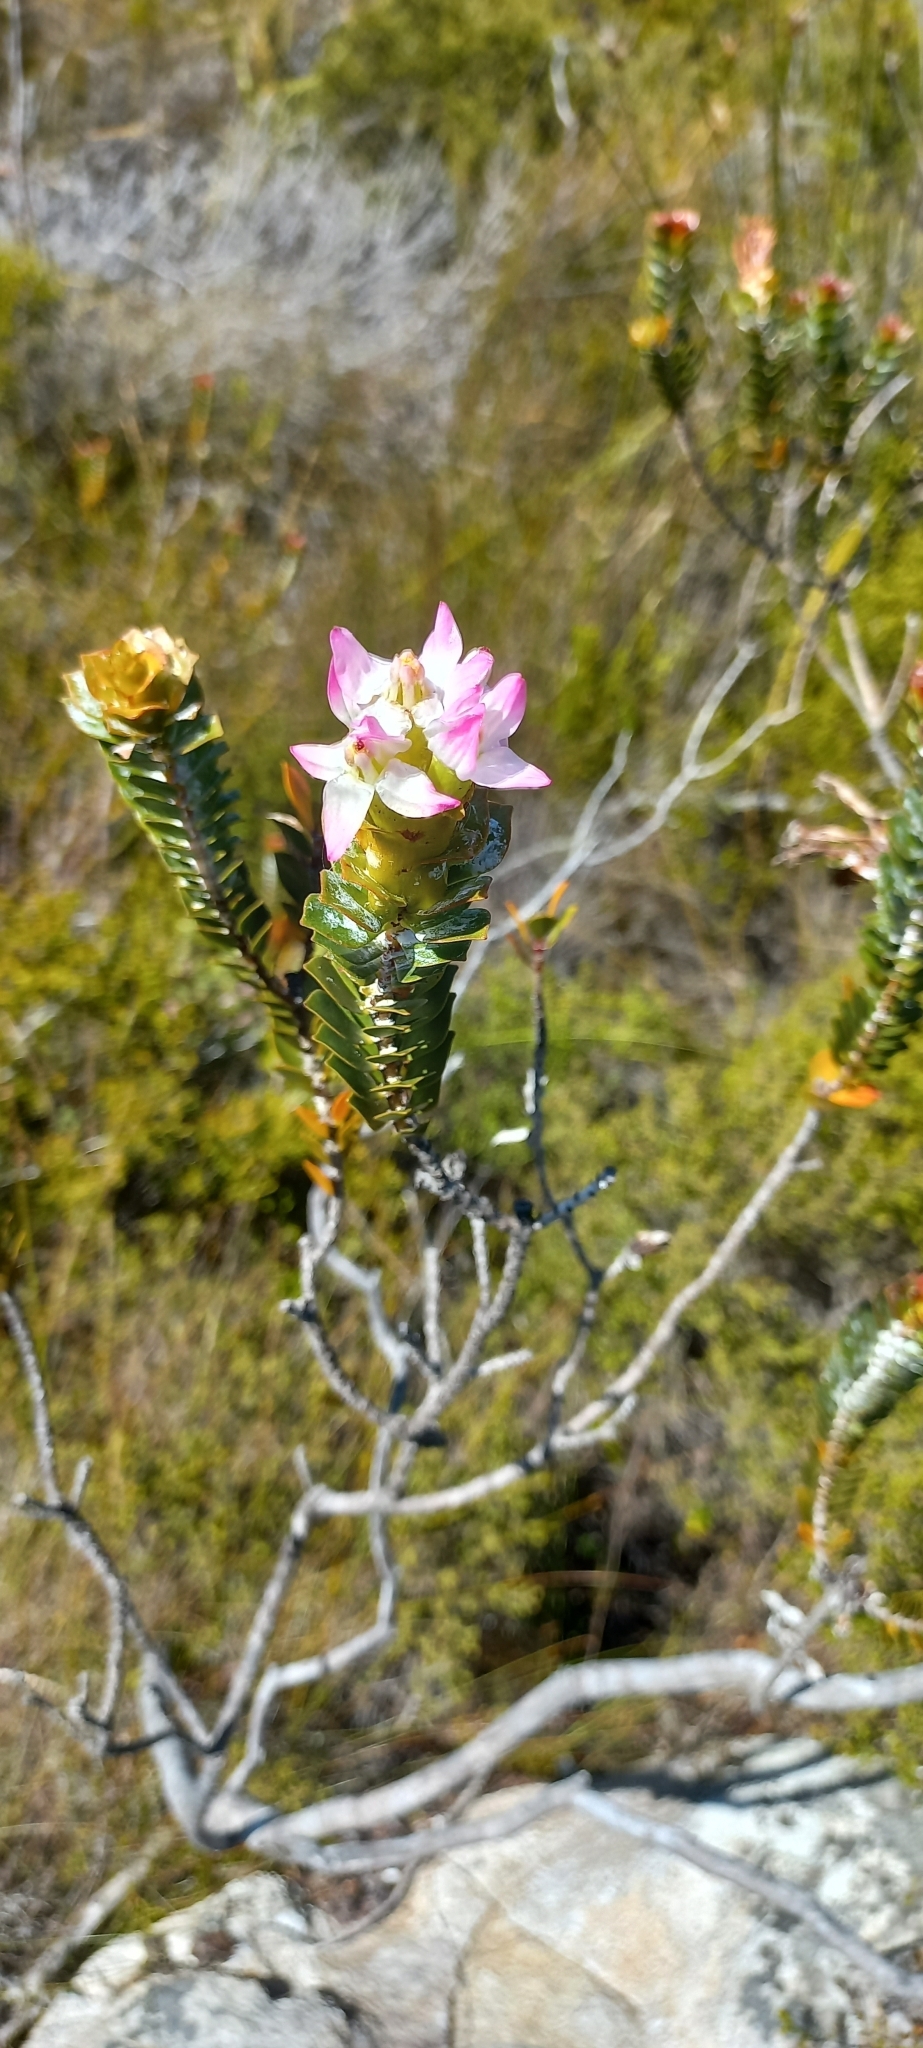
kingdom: Plantae
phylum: Tracheophyta
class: Magnoliopsida
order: Myrtales
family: Penaeaceae
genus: Saltera
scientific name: Saltera sarcocolla
